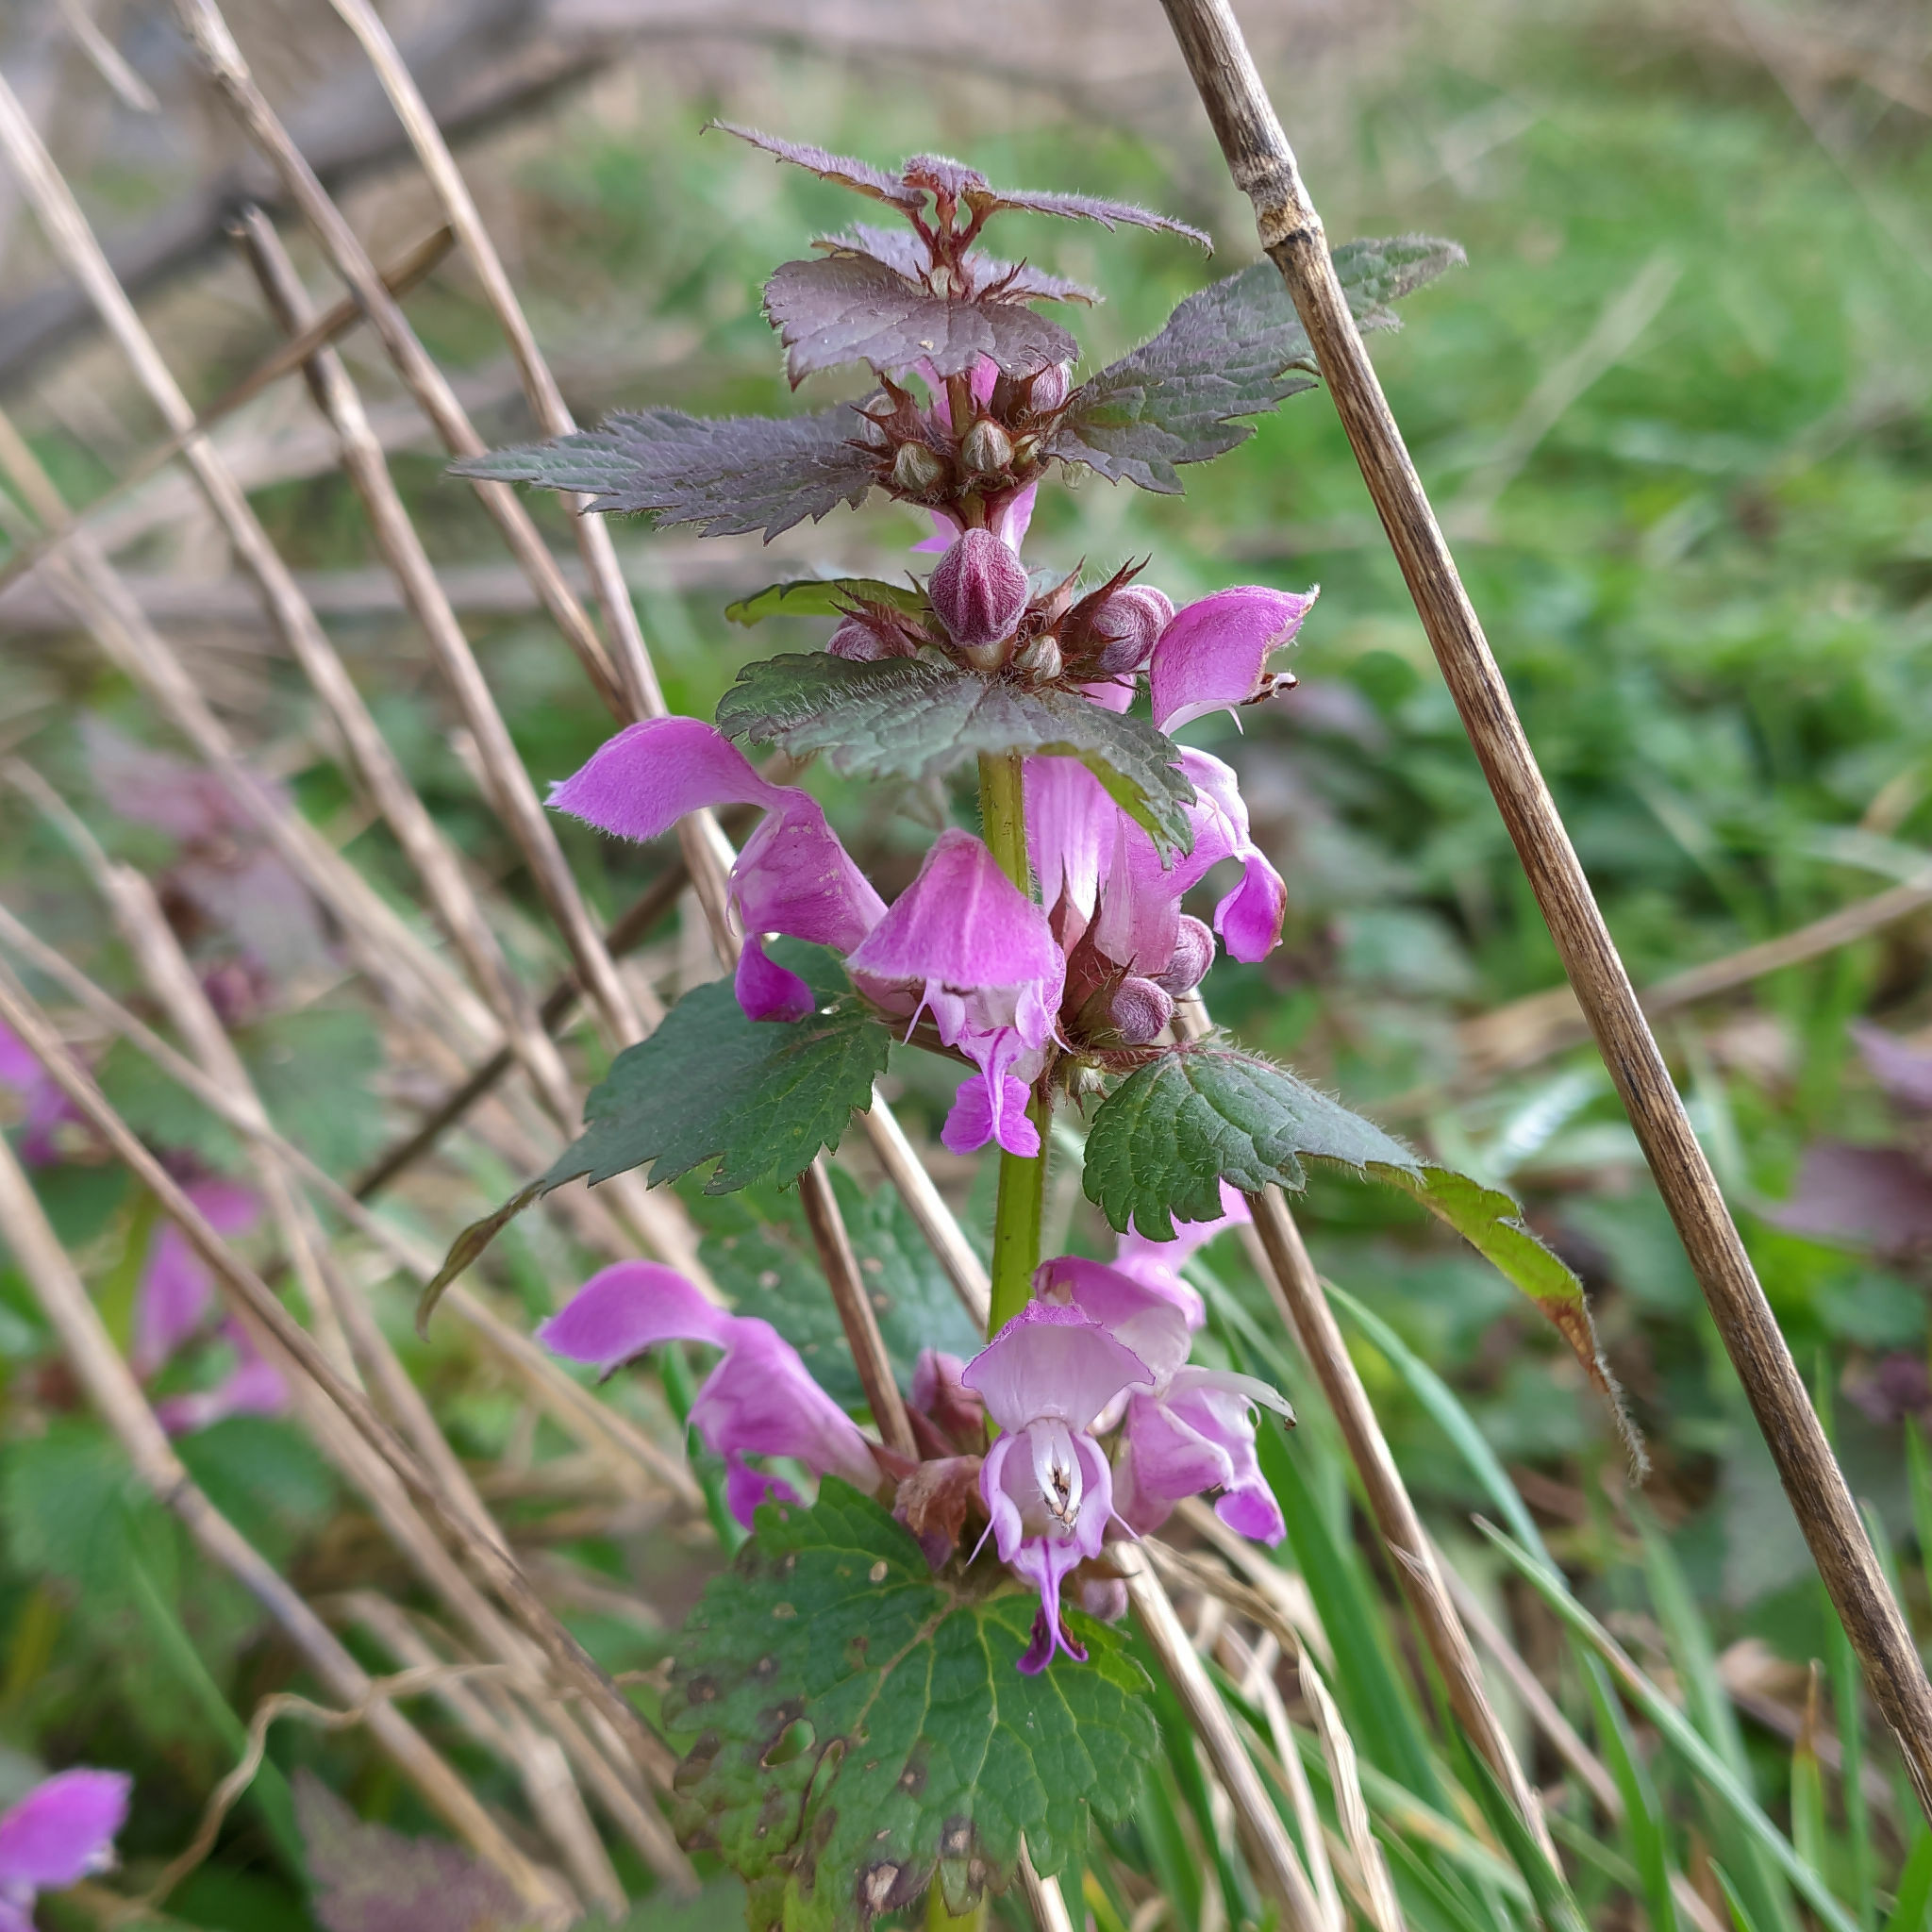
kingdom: Plantae
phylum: Tracheophyta
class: Magnoliopsida
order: Lamiales
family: Lamiaceae
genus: Lamium
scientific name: Lamium maculatum
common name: Spotted dead-nettle
